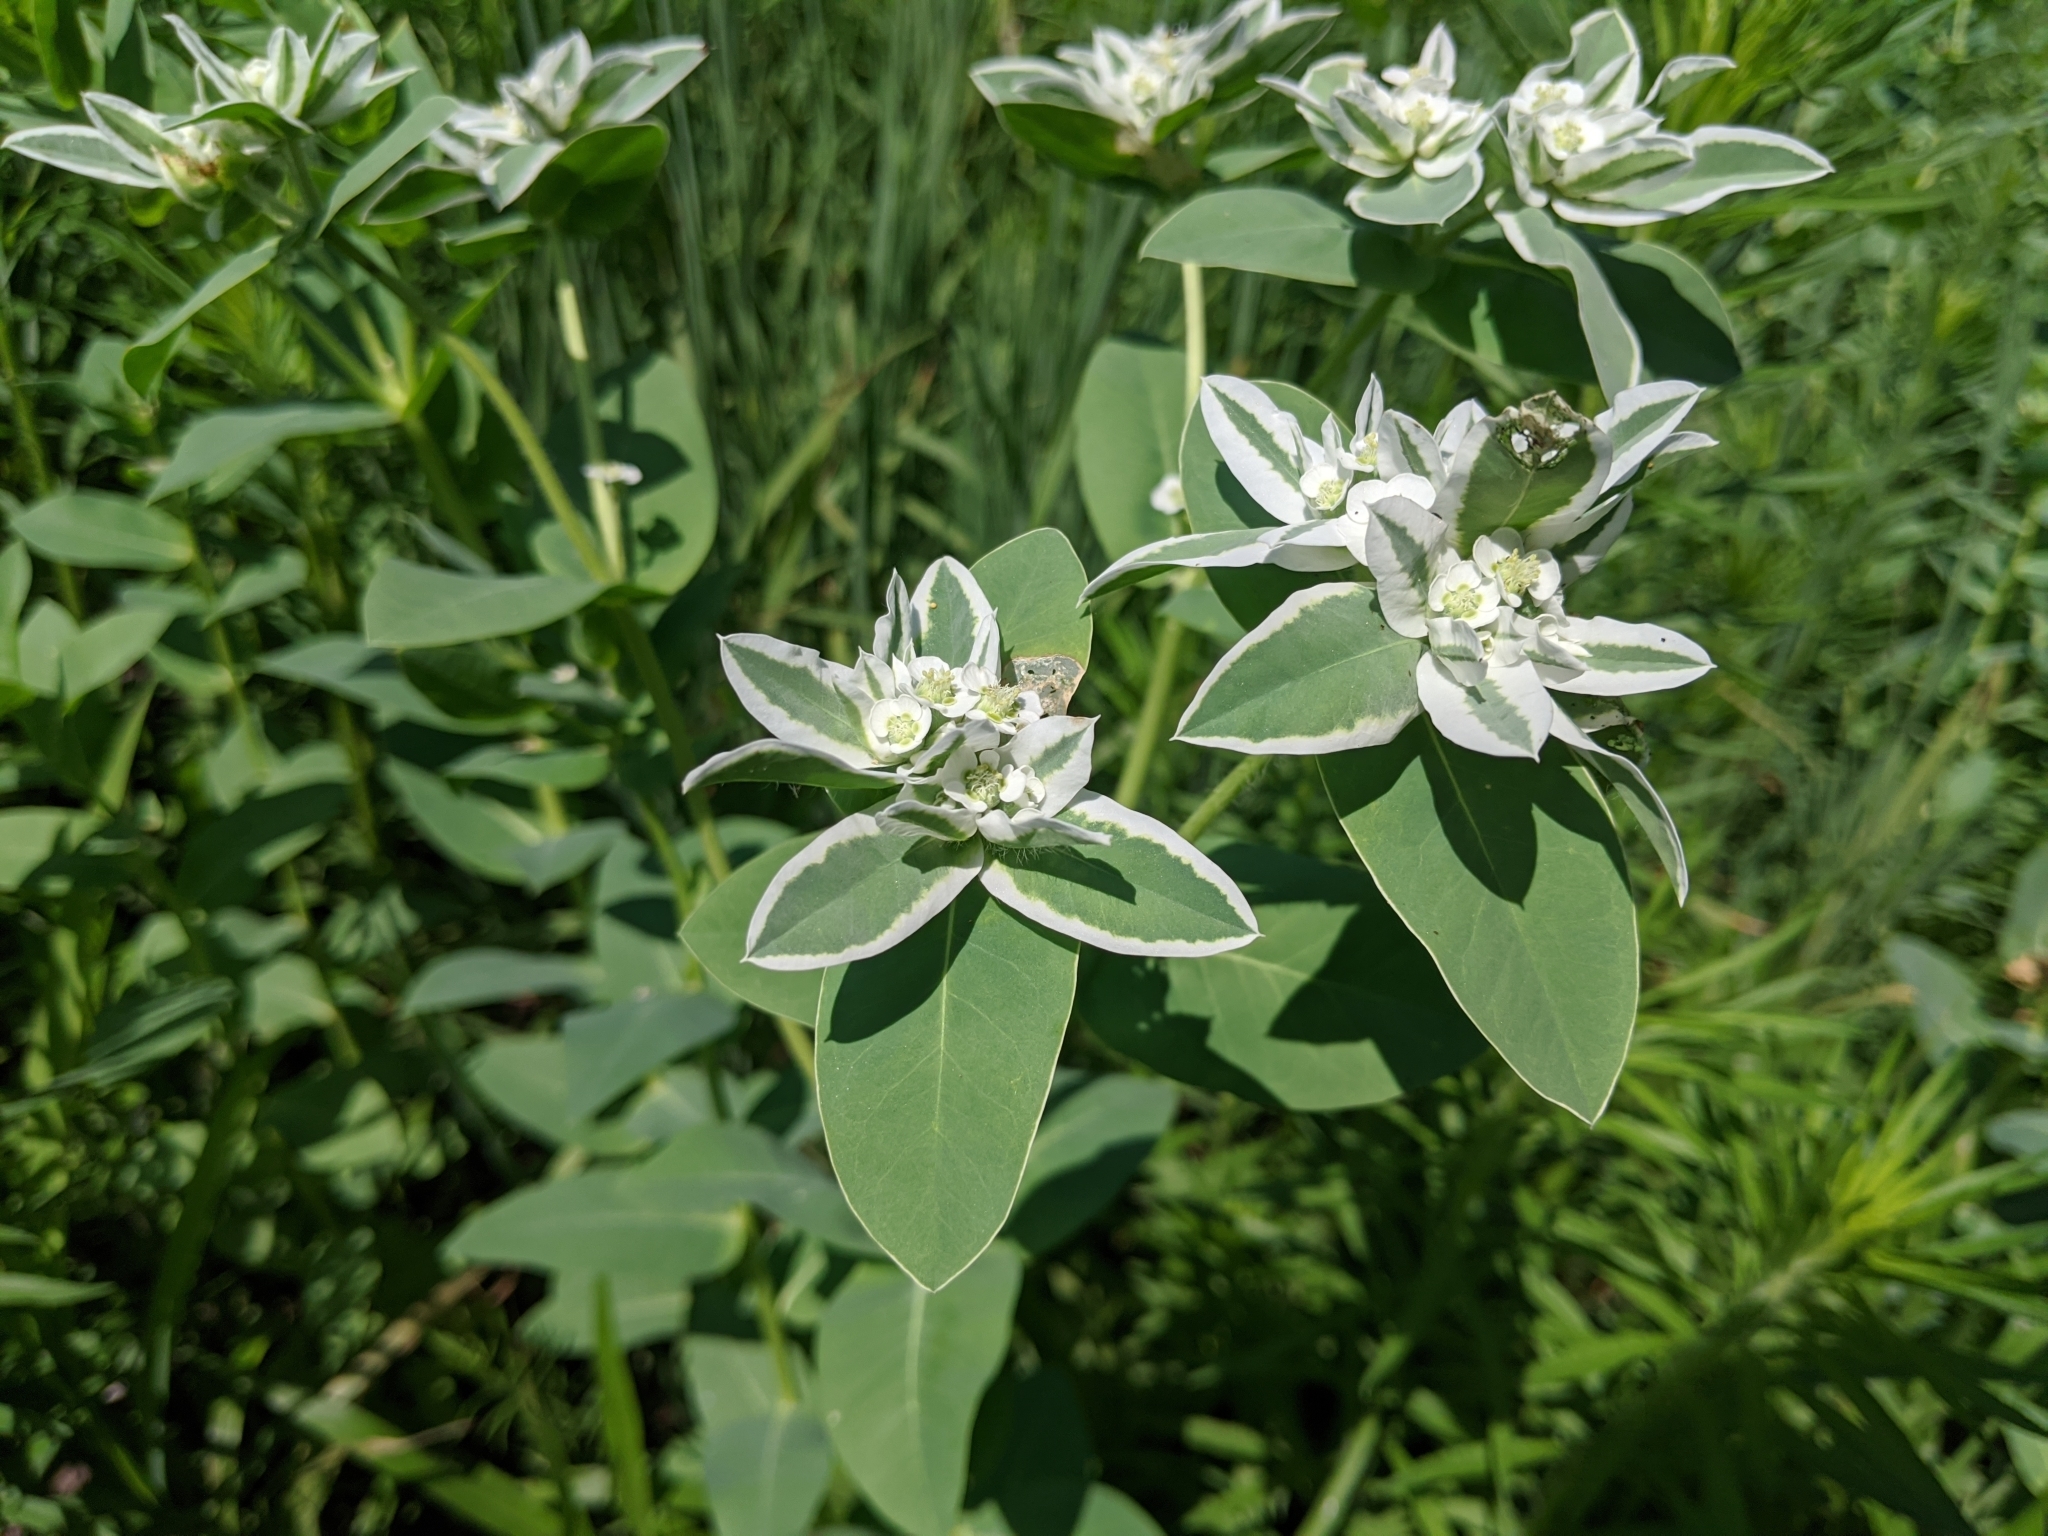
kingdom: Plantae
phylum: Tracheophyta
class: Magnoliopsida
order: Malpighiales
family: Euphorbiaceae
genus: Euphorbia
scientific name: Euphorbia marginata
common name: Ghostweed
